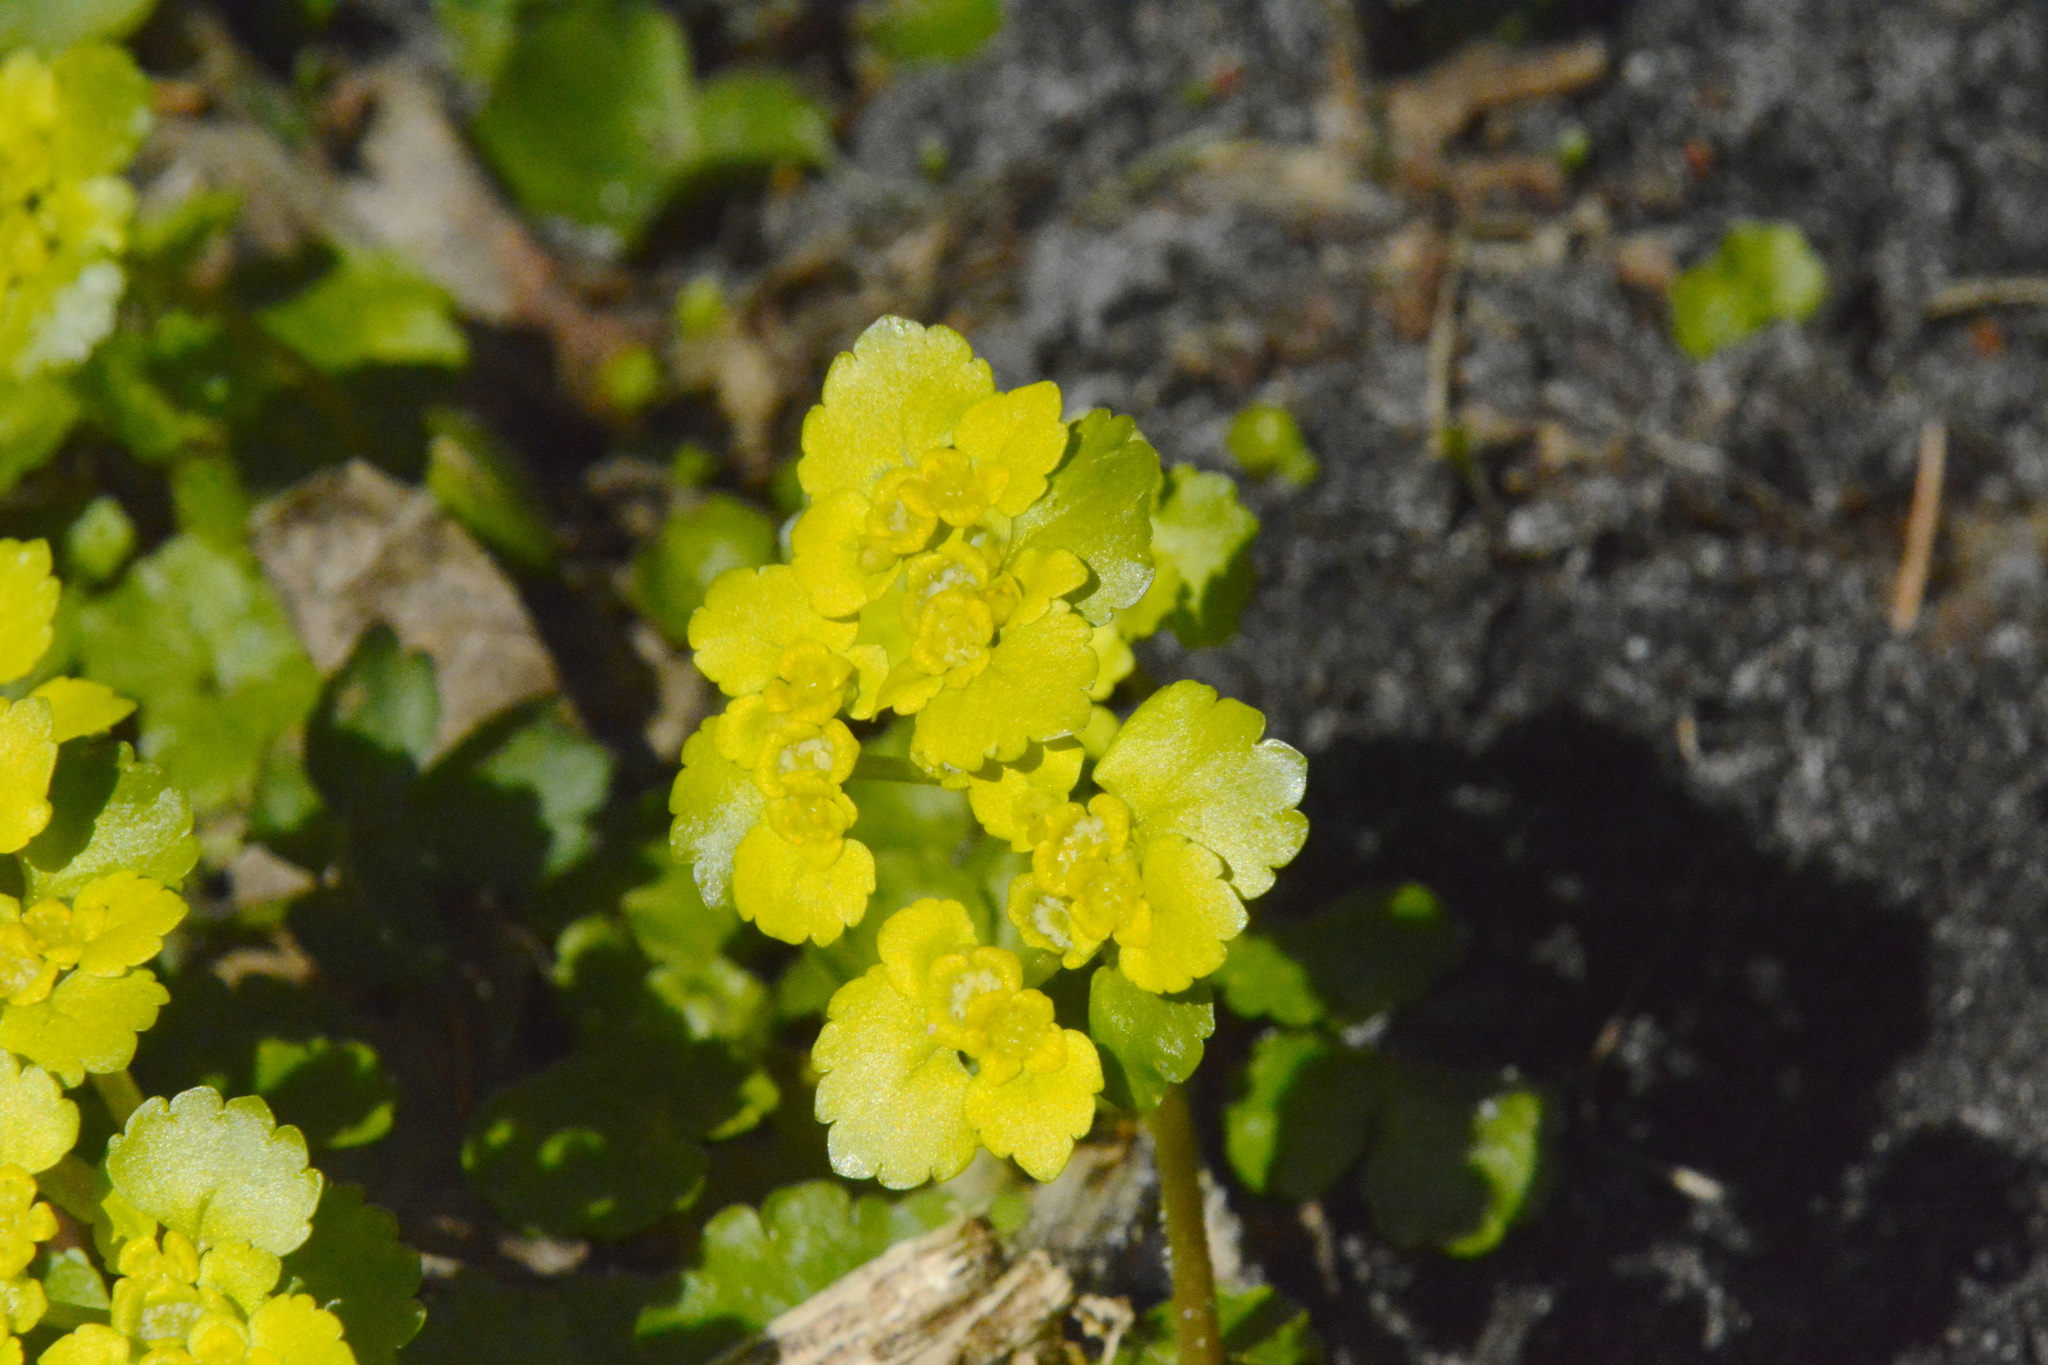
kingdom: Plantae
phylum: Tracheophyta
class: Magnoliopsida
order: Saxifragales
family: Saxifragaceae
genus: Chrysosplenium
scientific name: Chrysosplenium alternifolium
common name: Alternate-leaved golden-saxifrage
